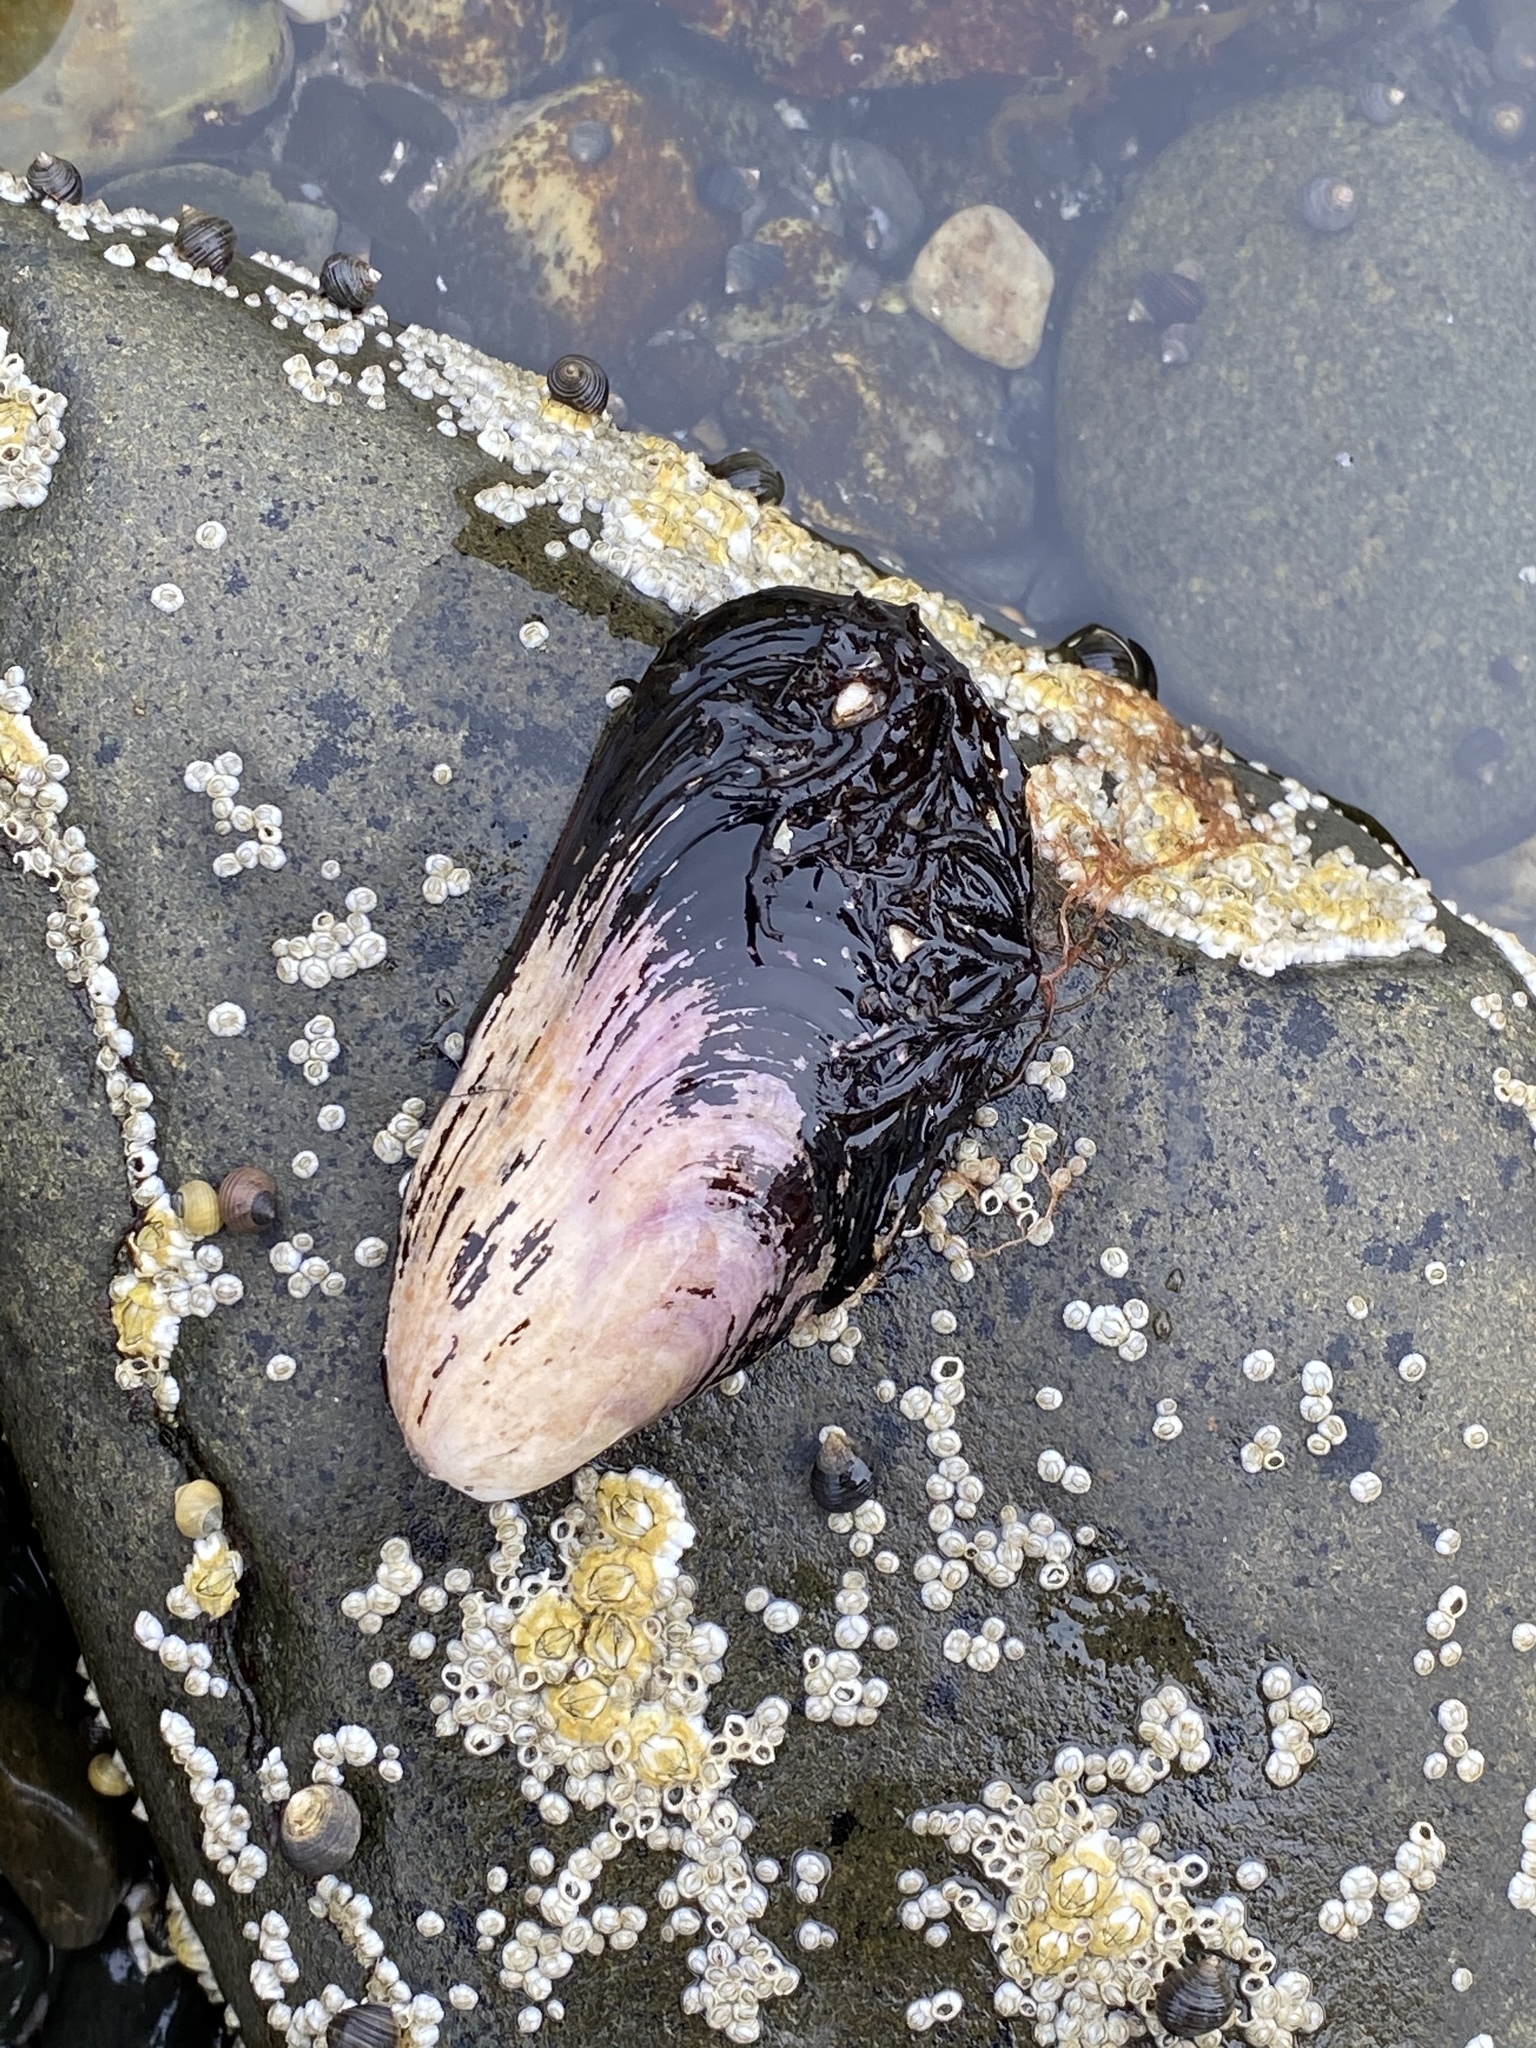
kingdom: Animalia
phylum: Mollusca
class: Bivalvia
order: Mytilida
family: Mytilidae
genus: Modiolus
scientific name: Modiolus modiolus
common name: Horse-mussel
